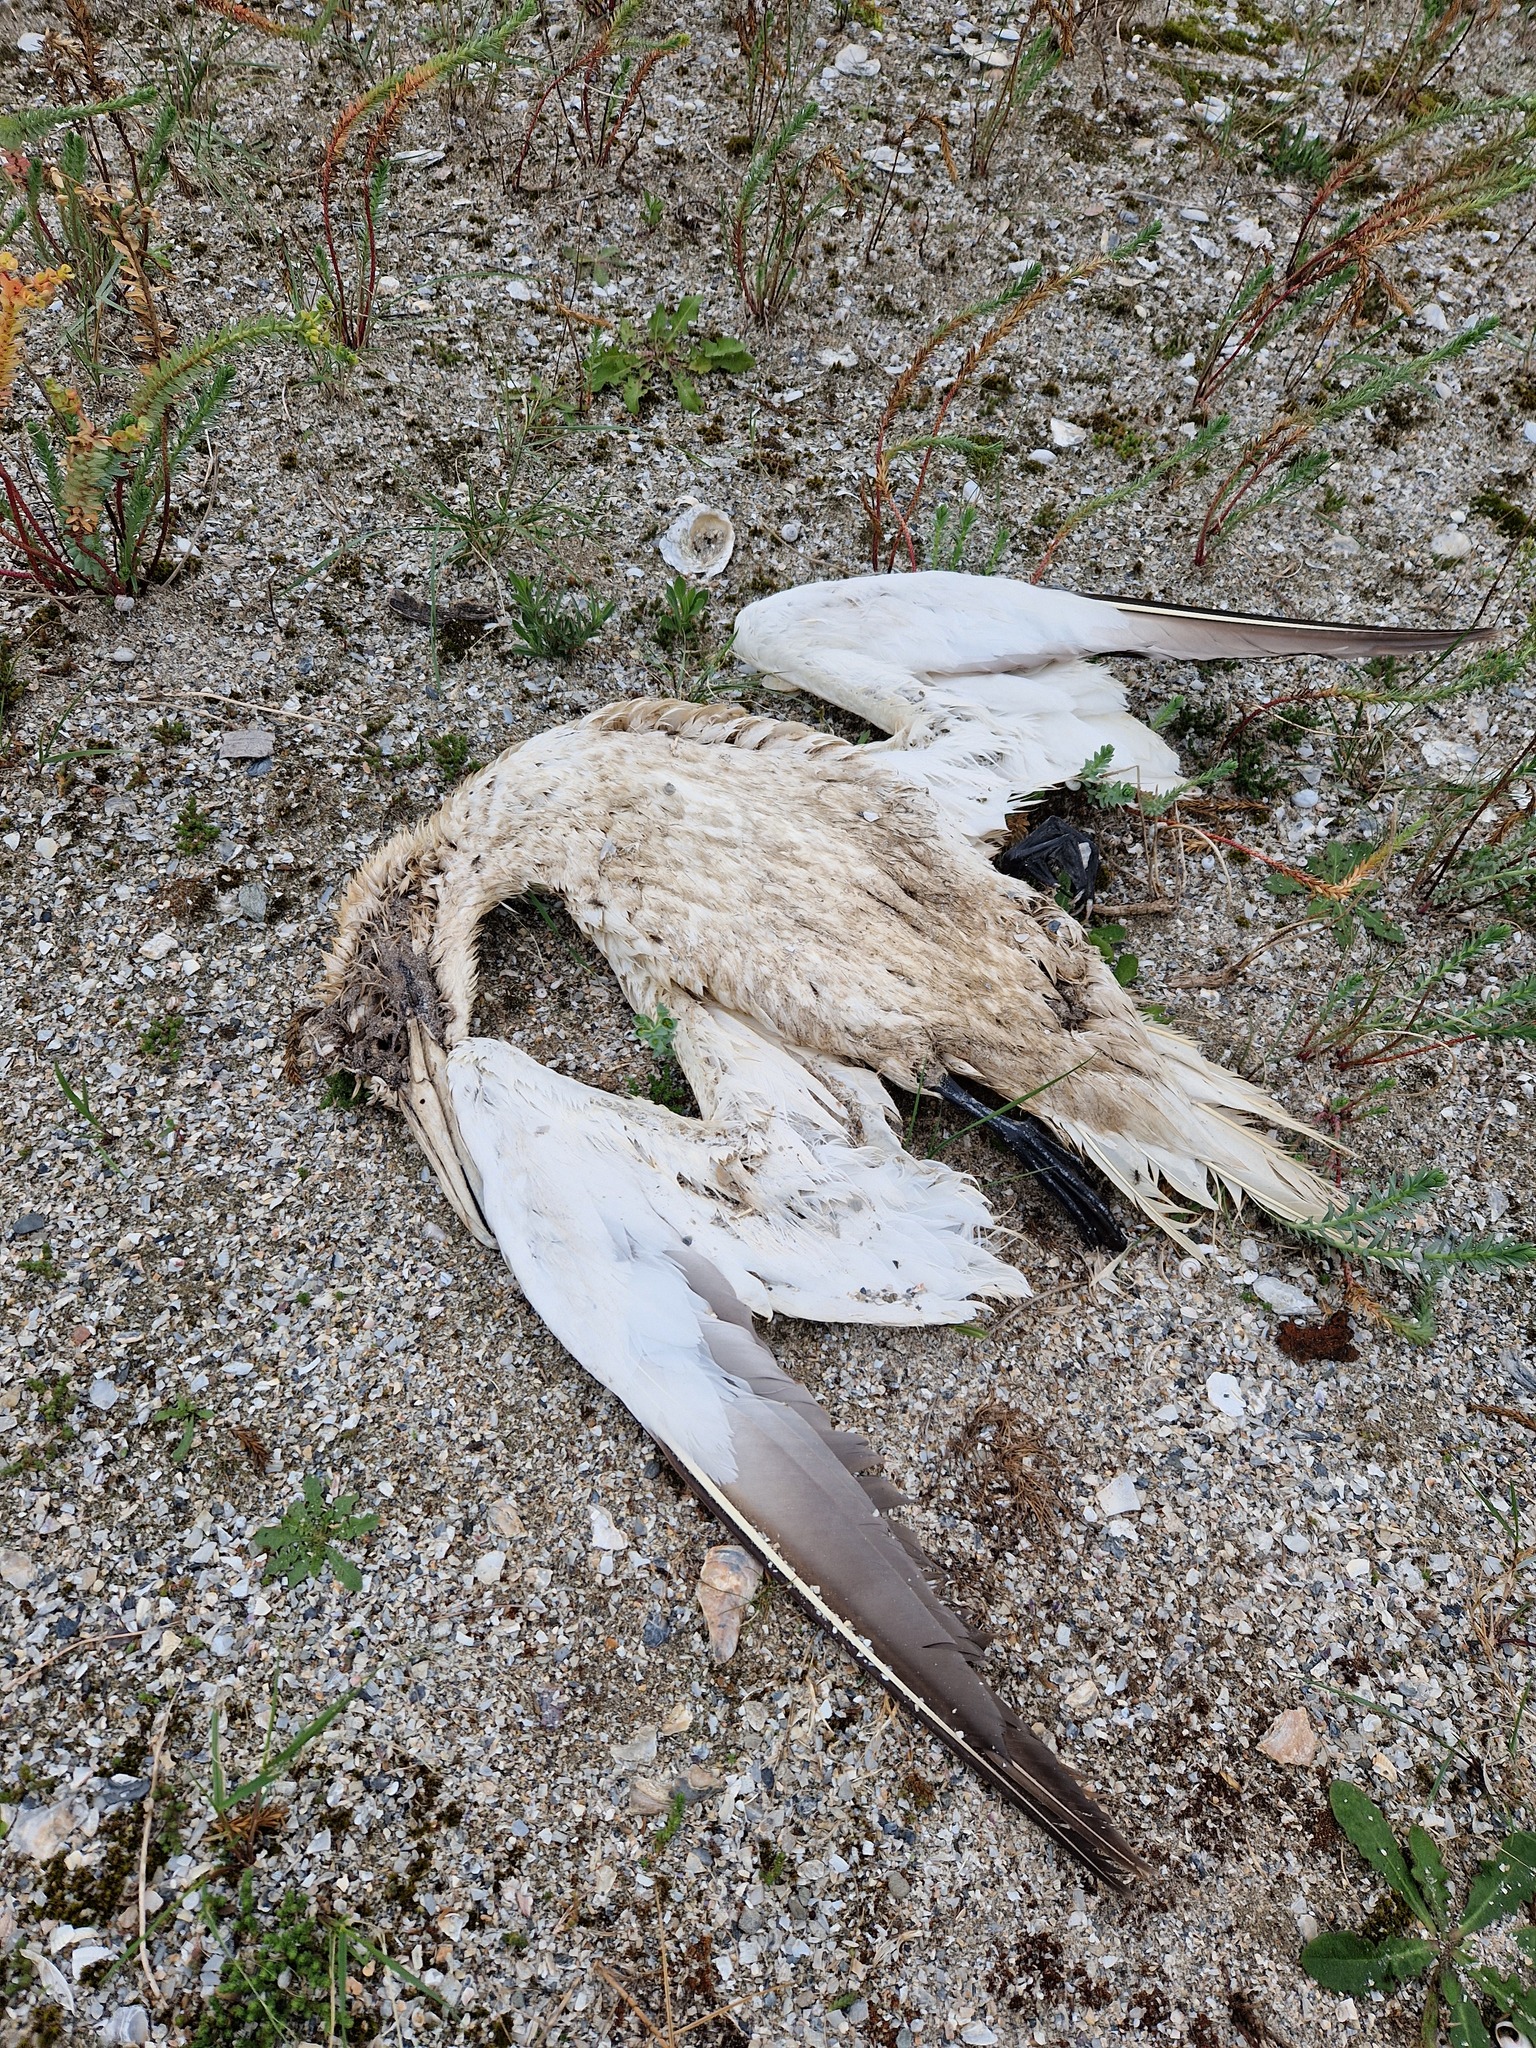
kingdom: Animalia
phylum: Chordata
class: Aves
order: Suliformes
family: Sulidae
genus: Morus
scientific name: Morus bassanus
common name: Northern gannet
